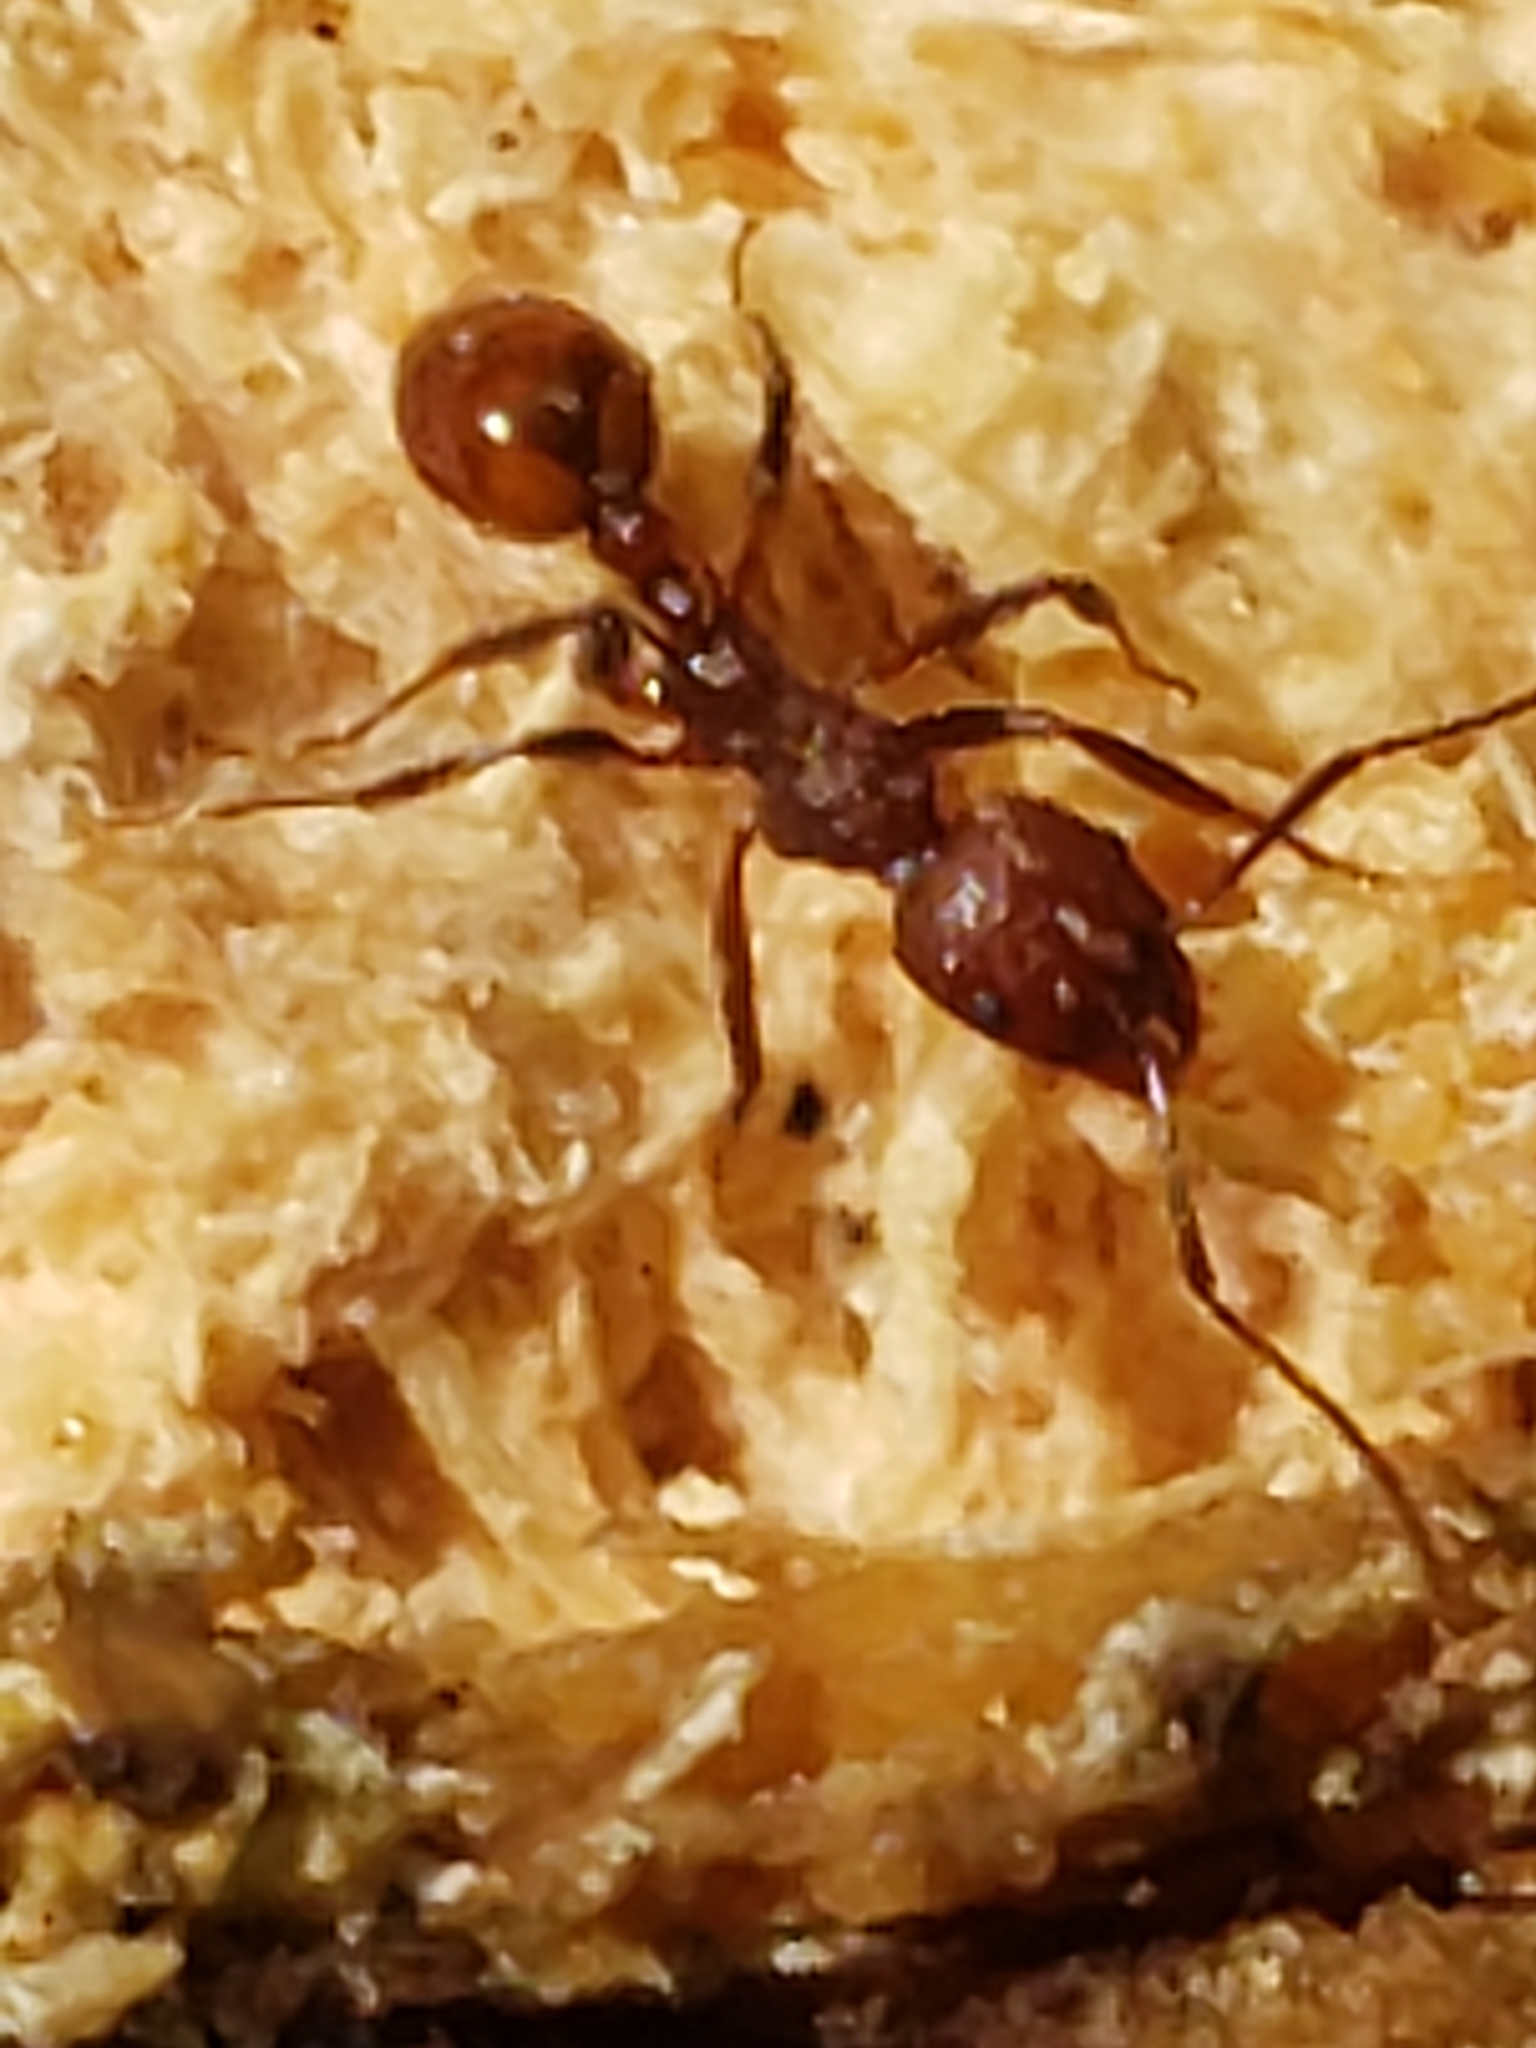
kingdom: Animalia
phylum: Arthropoda
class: Insecta
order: Hymenoptera
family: Formicidae
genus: Aphaenogaster
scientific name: Aphaenogaster tennesseensis
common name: Tennessee thread-waisted ant
